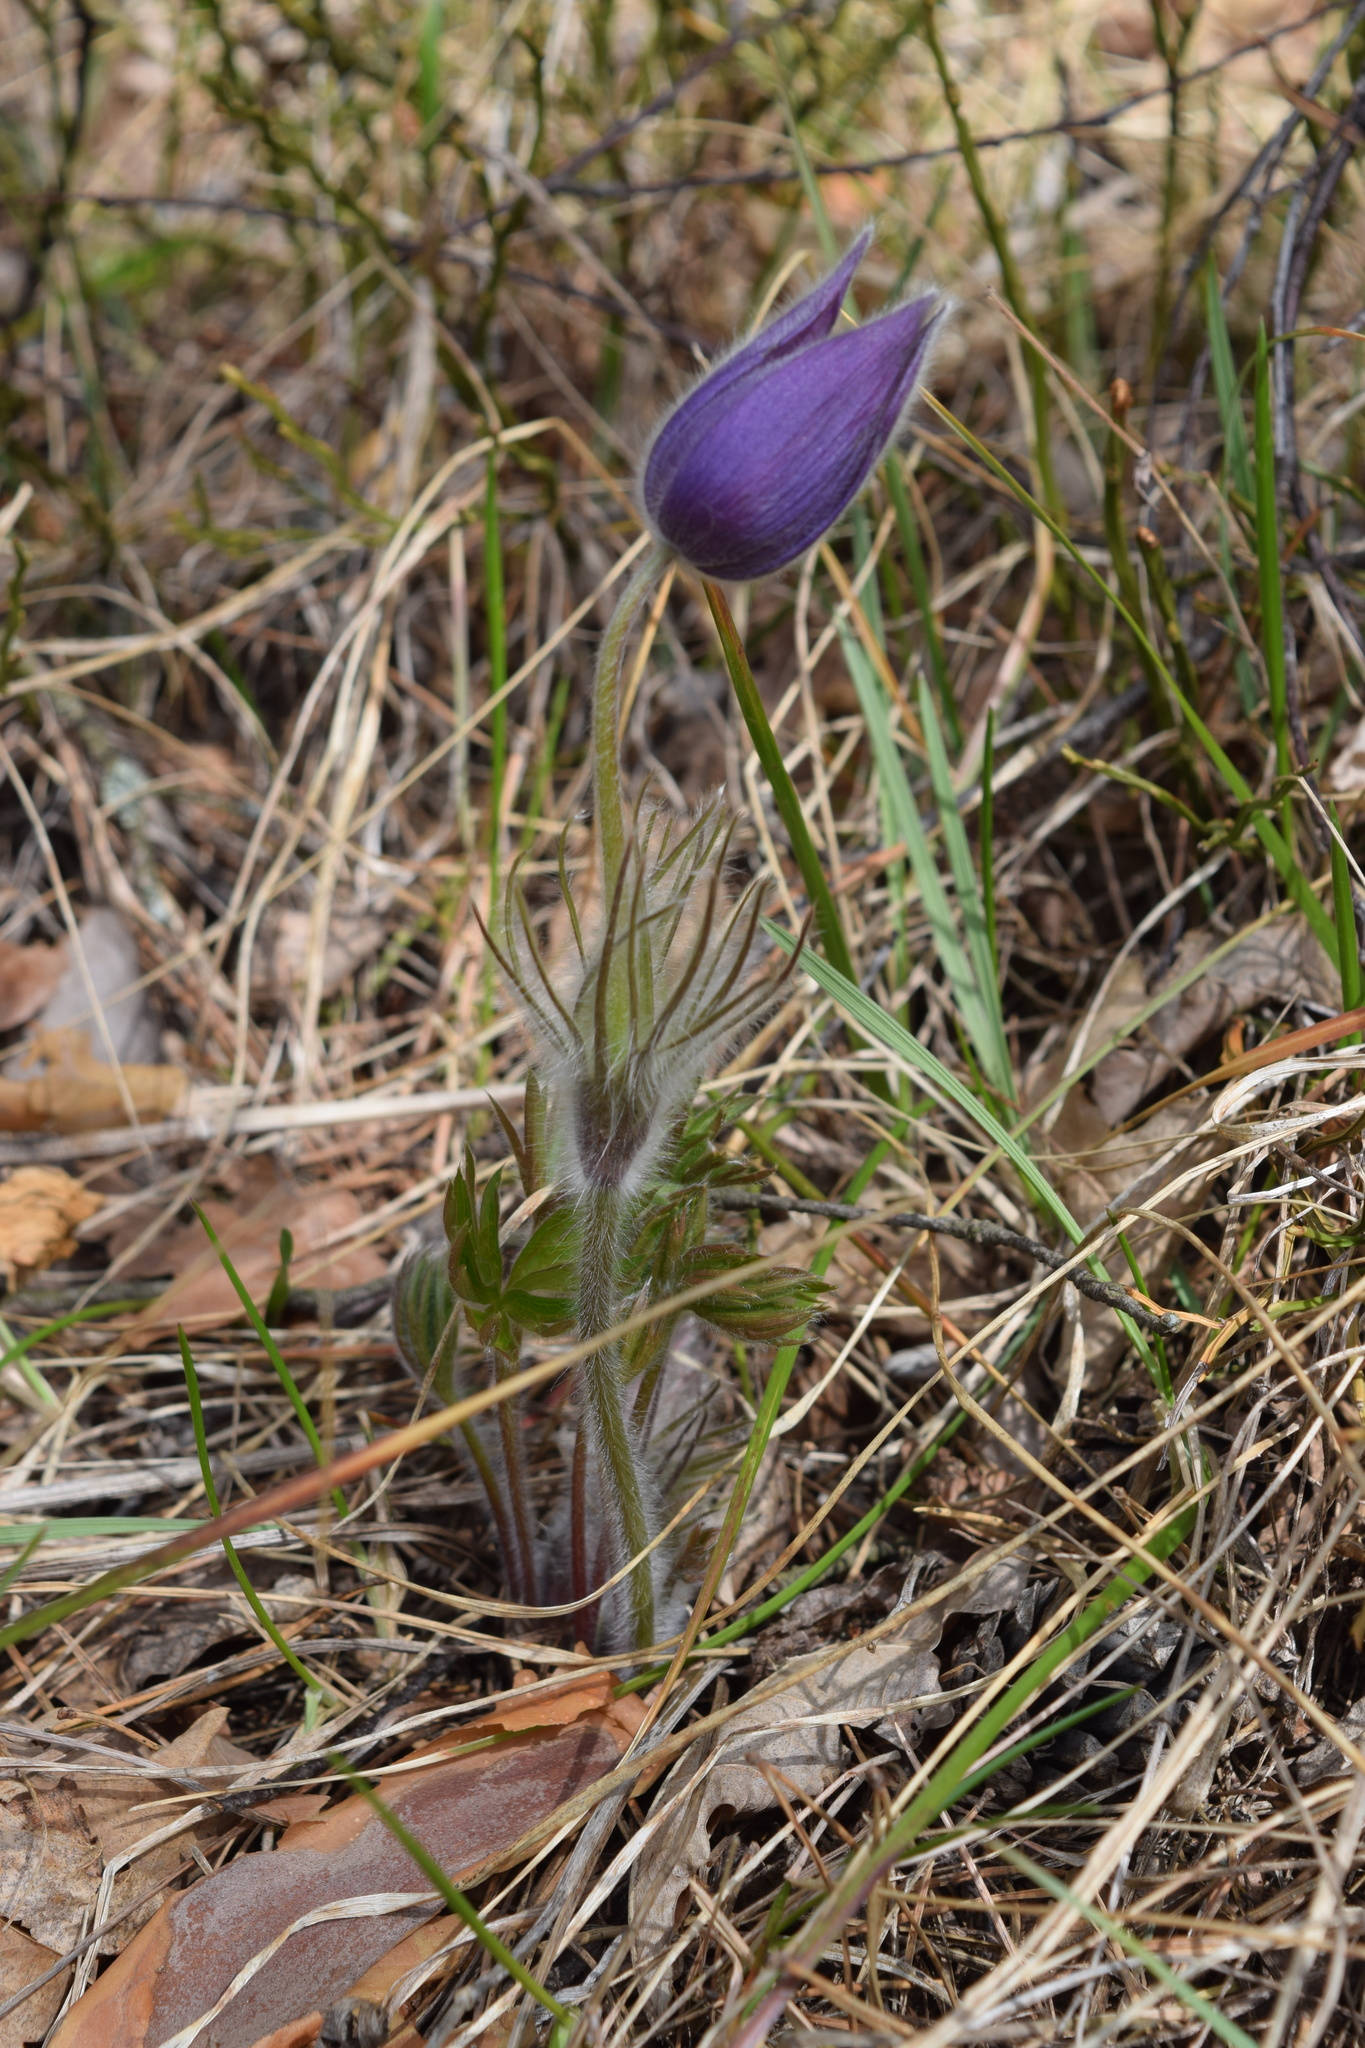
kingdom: Plantae
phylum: Tracheophyta
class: Magnoliopsida
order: Ranunculales
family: Ranunculaceae
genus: Pulsatilla
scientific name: Pulsatilla patens
